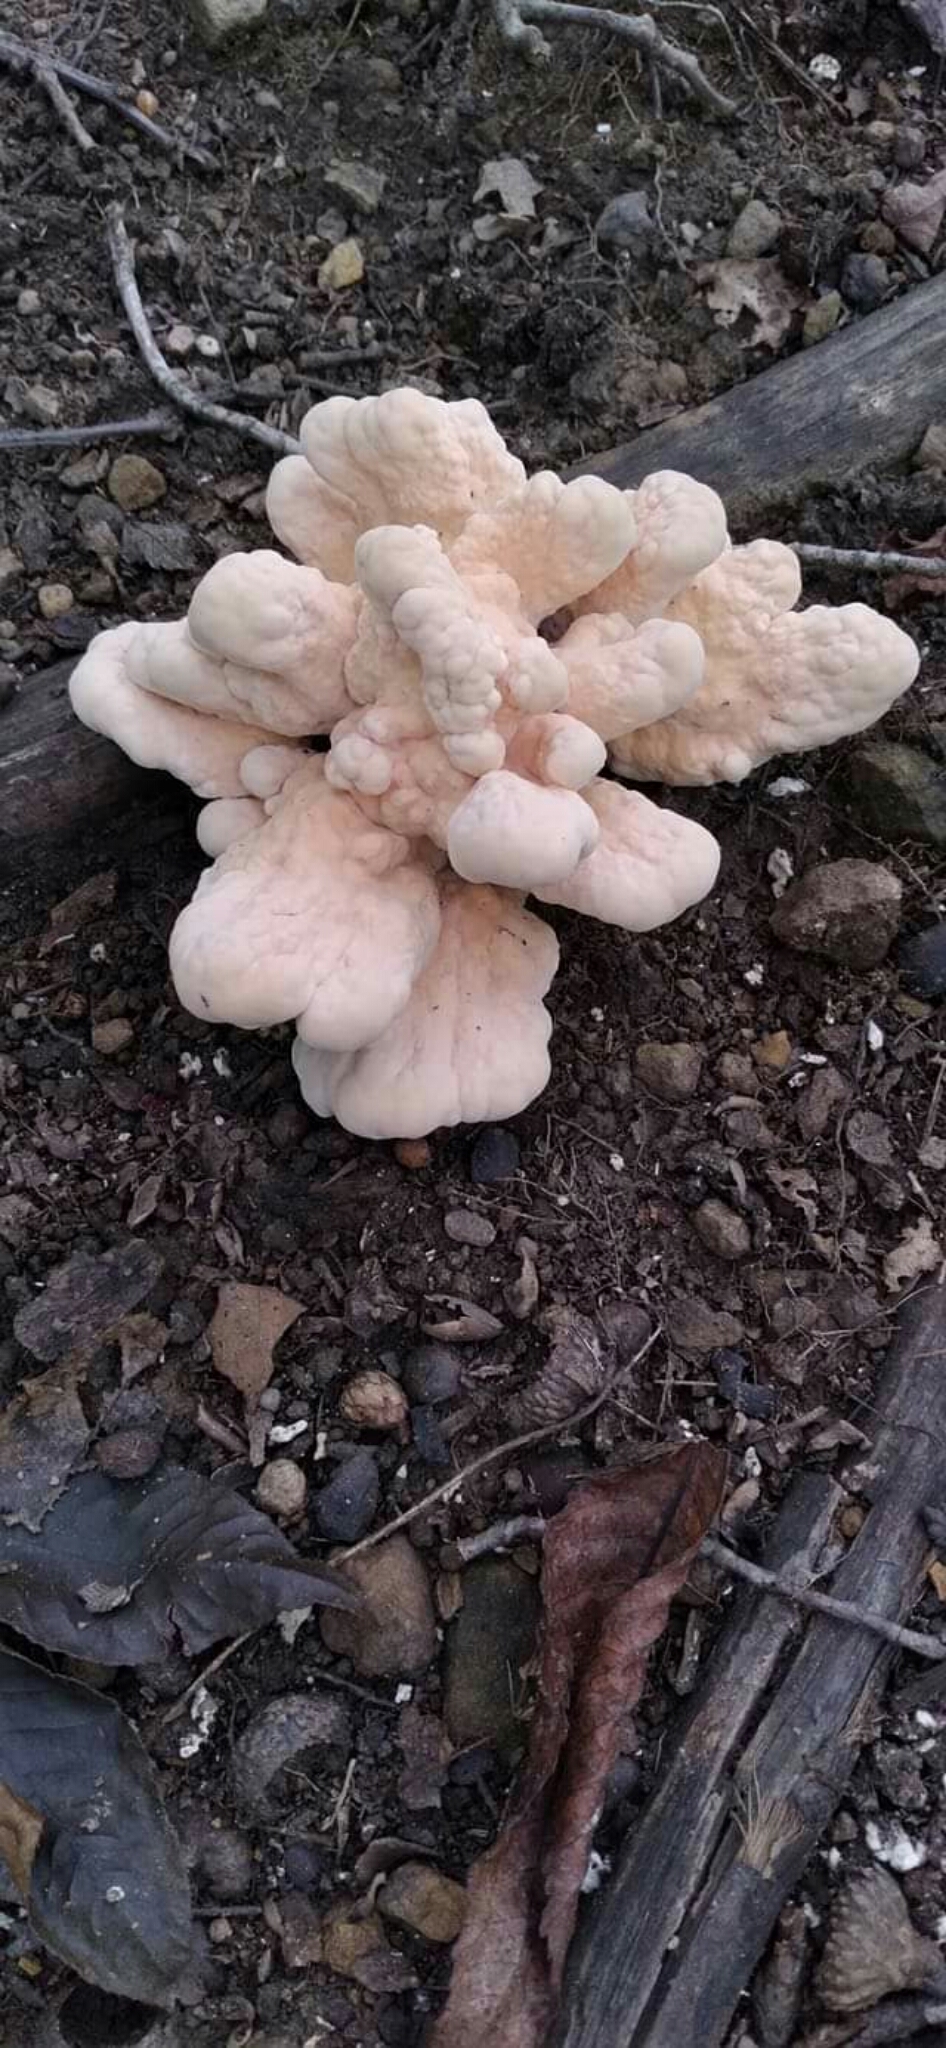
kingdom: Fungi
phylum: Basidiomycota
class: Agaricomycetes
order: Polyporales
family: Laetiporaceae
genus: Laetiporus
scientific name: Laetiporus sulphureus
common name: Chicken of the woods
